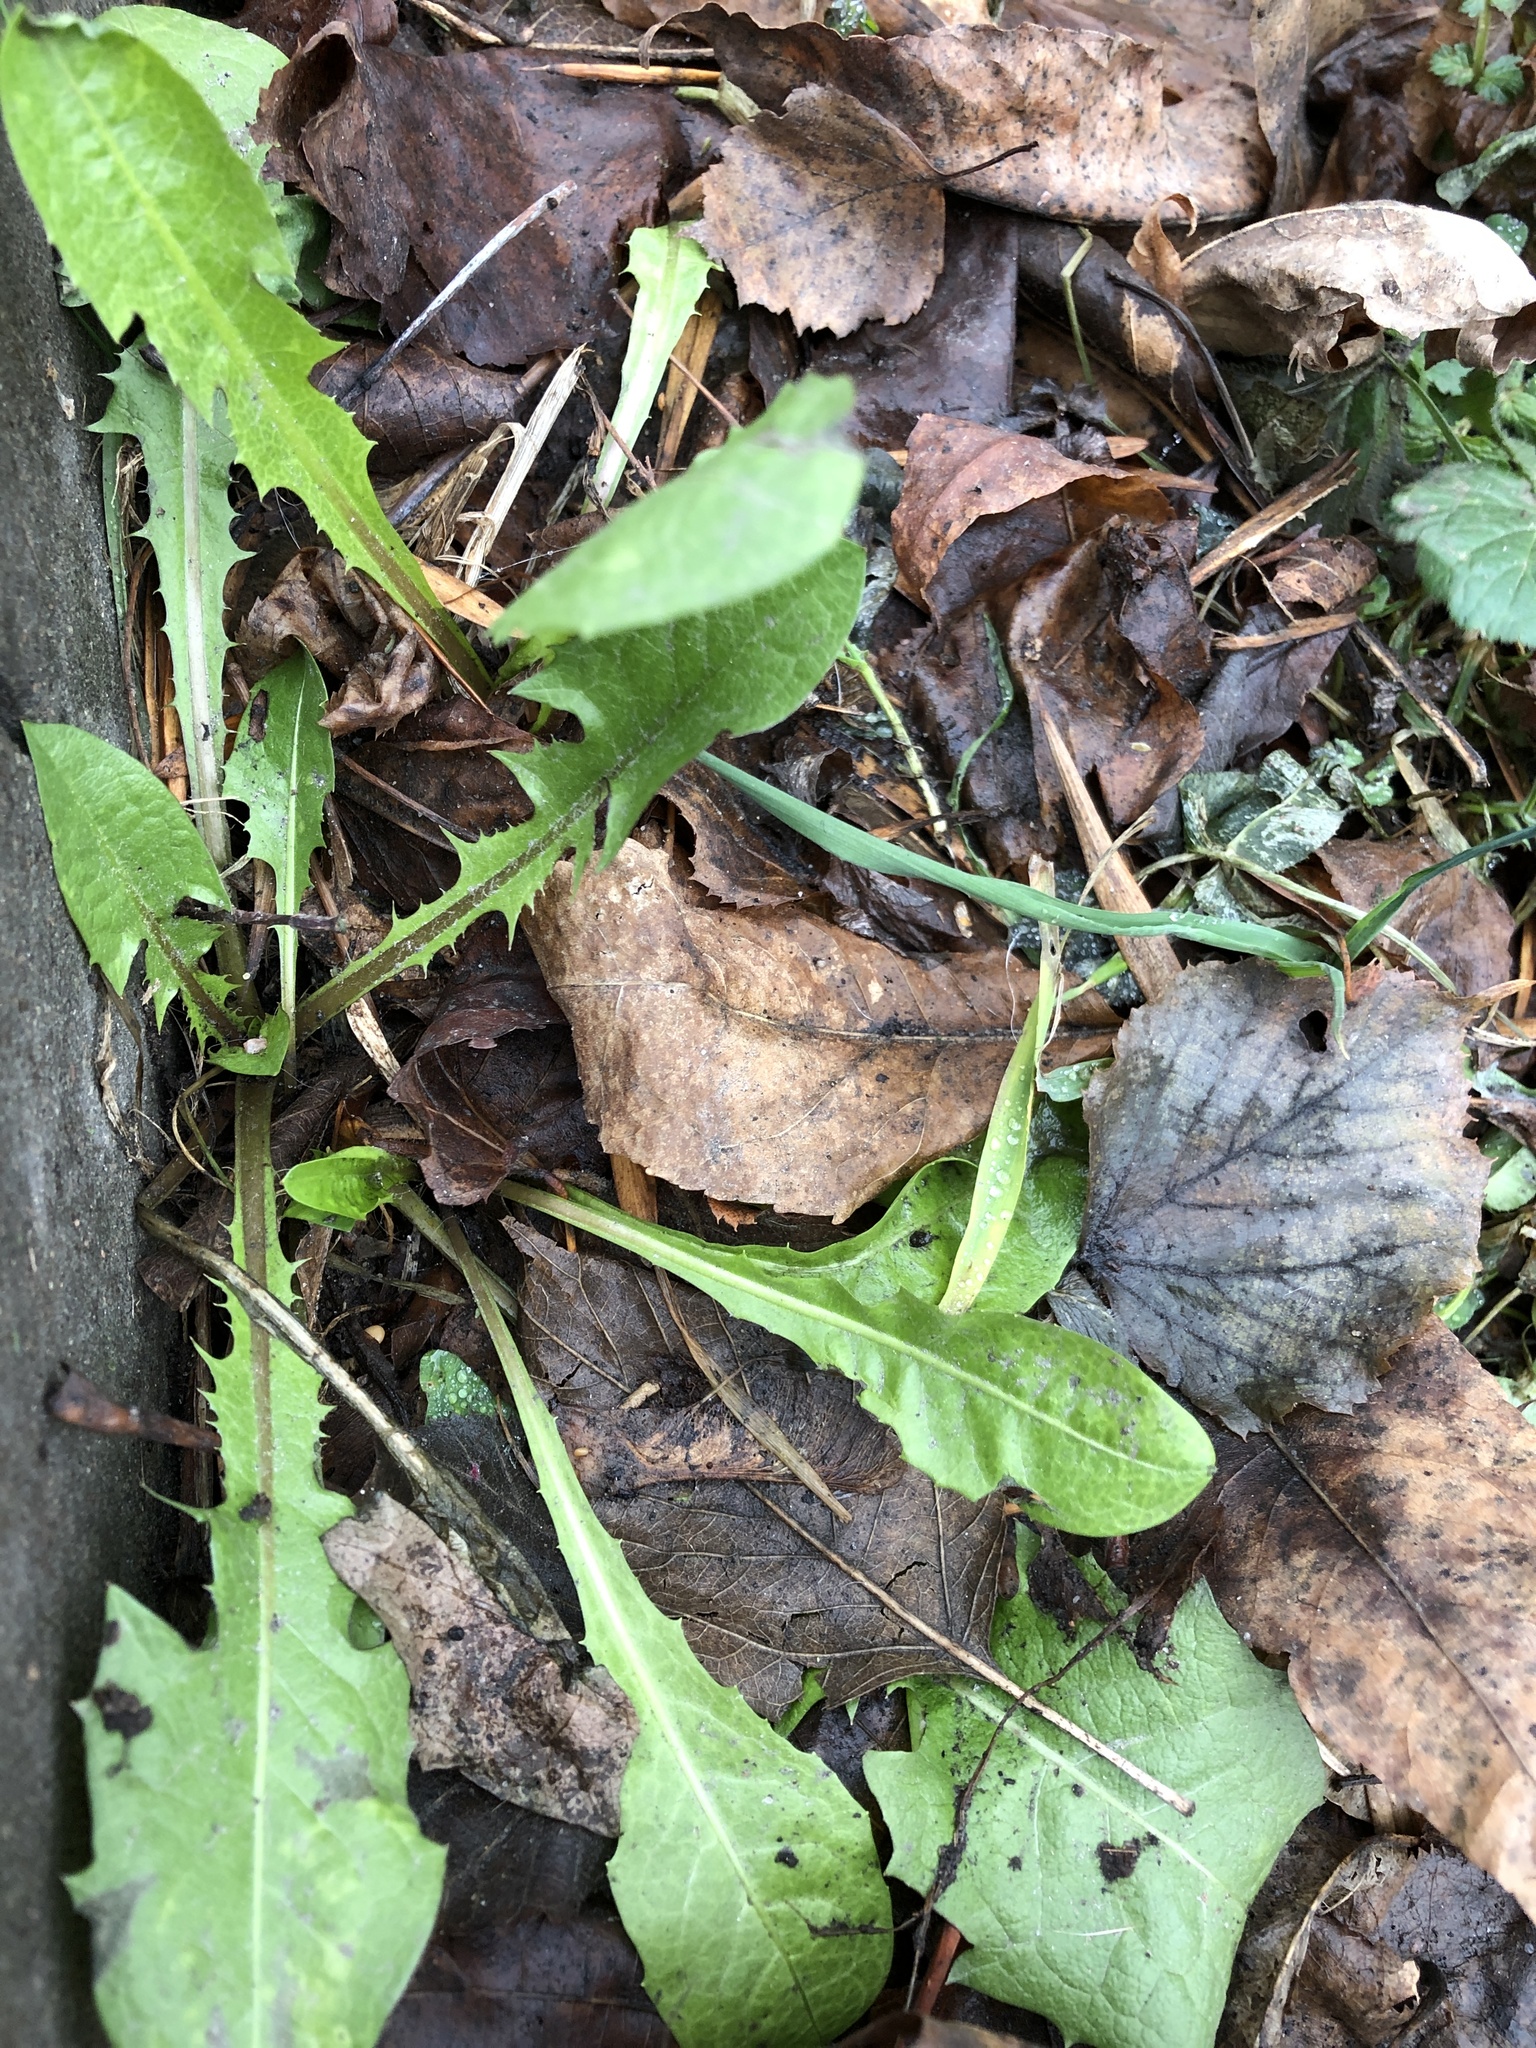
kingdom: Plantae
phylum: Tracheophyta
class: Magnoliopsida
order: Asterales
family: Asteraceae
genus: Taraxacum
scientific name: Taraxacum officinale
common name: Common dandelion
